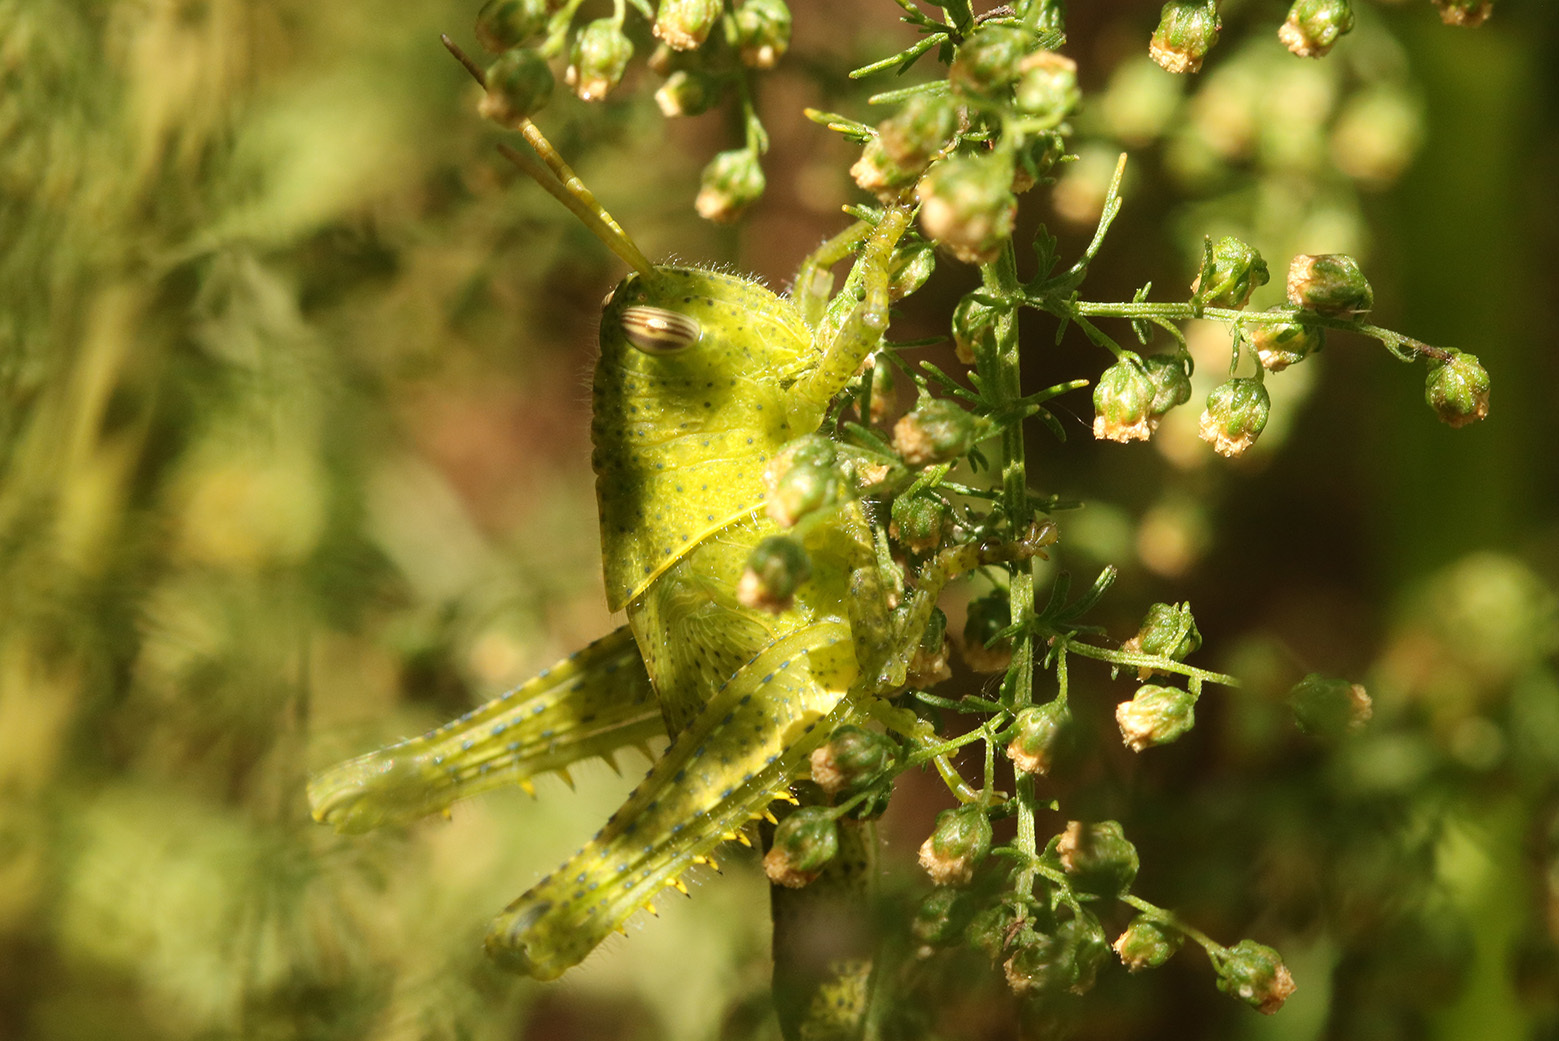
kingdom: Animalia
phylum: Arthropoda
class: Insecta
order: Orthoptera
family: Acrididae
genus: Schistocerca
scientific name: Schistocerca flavofasciata
